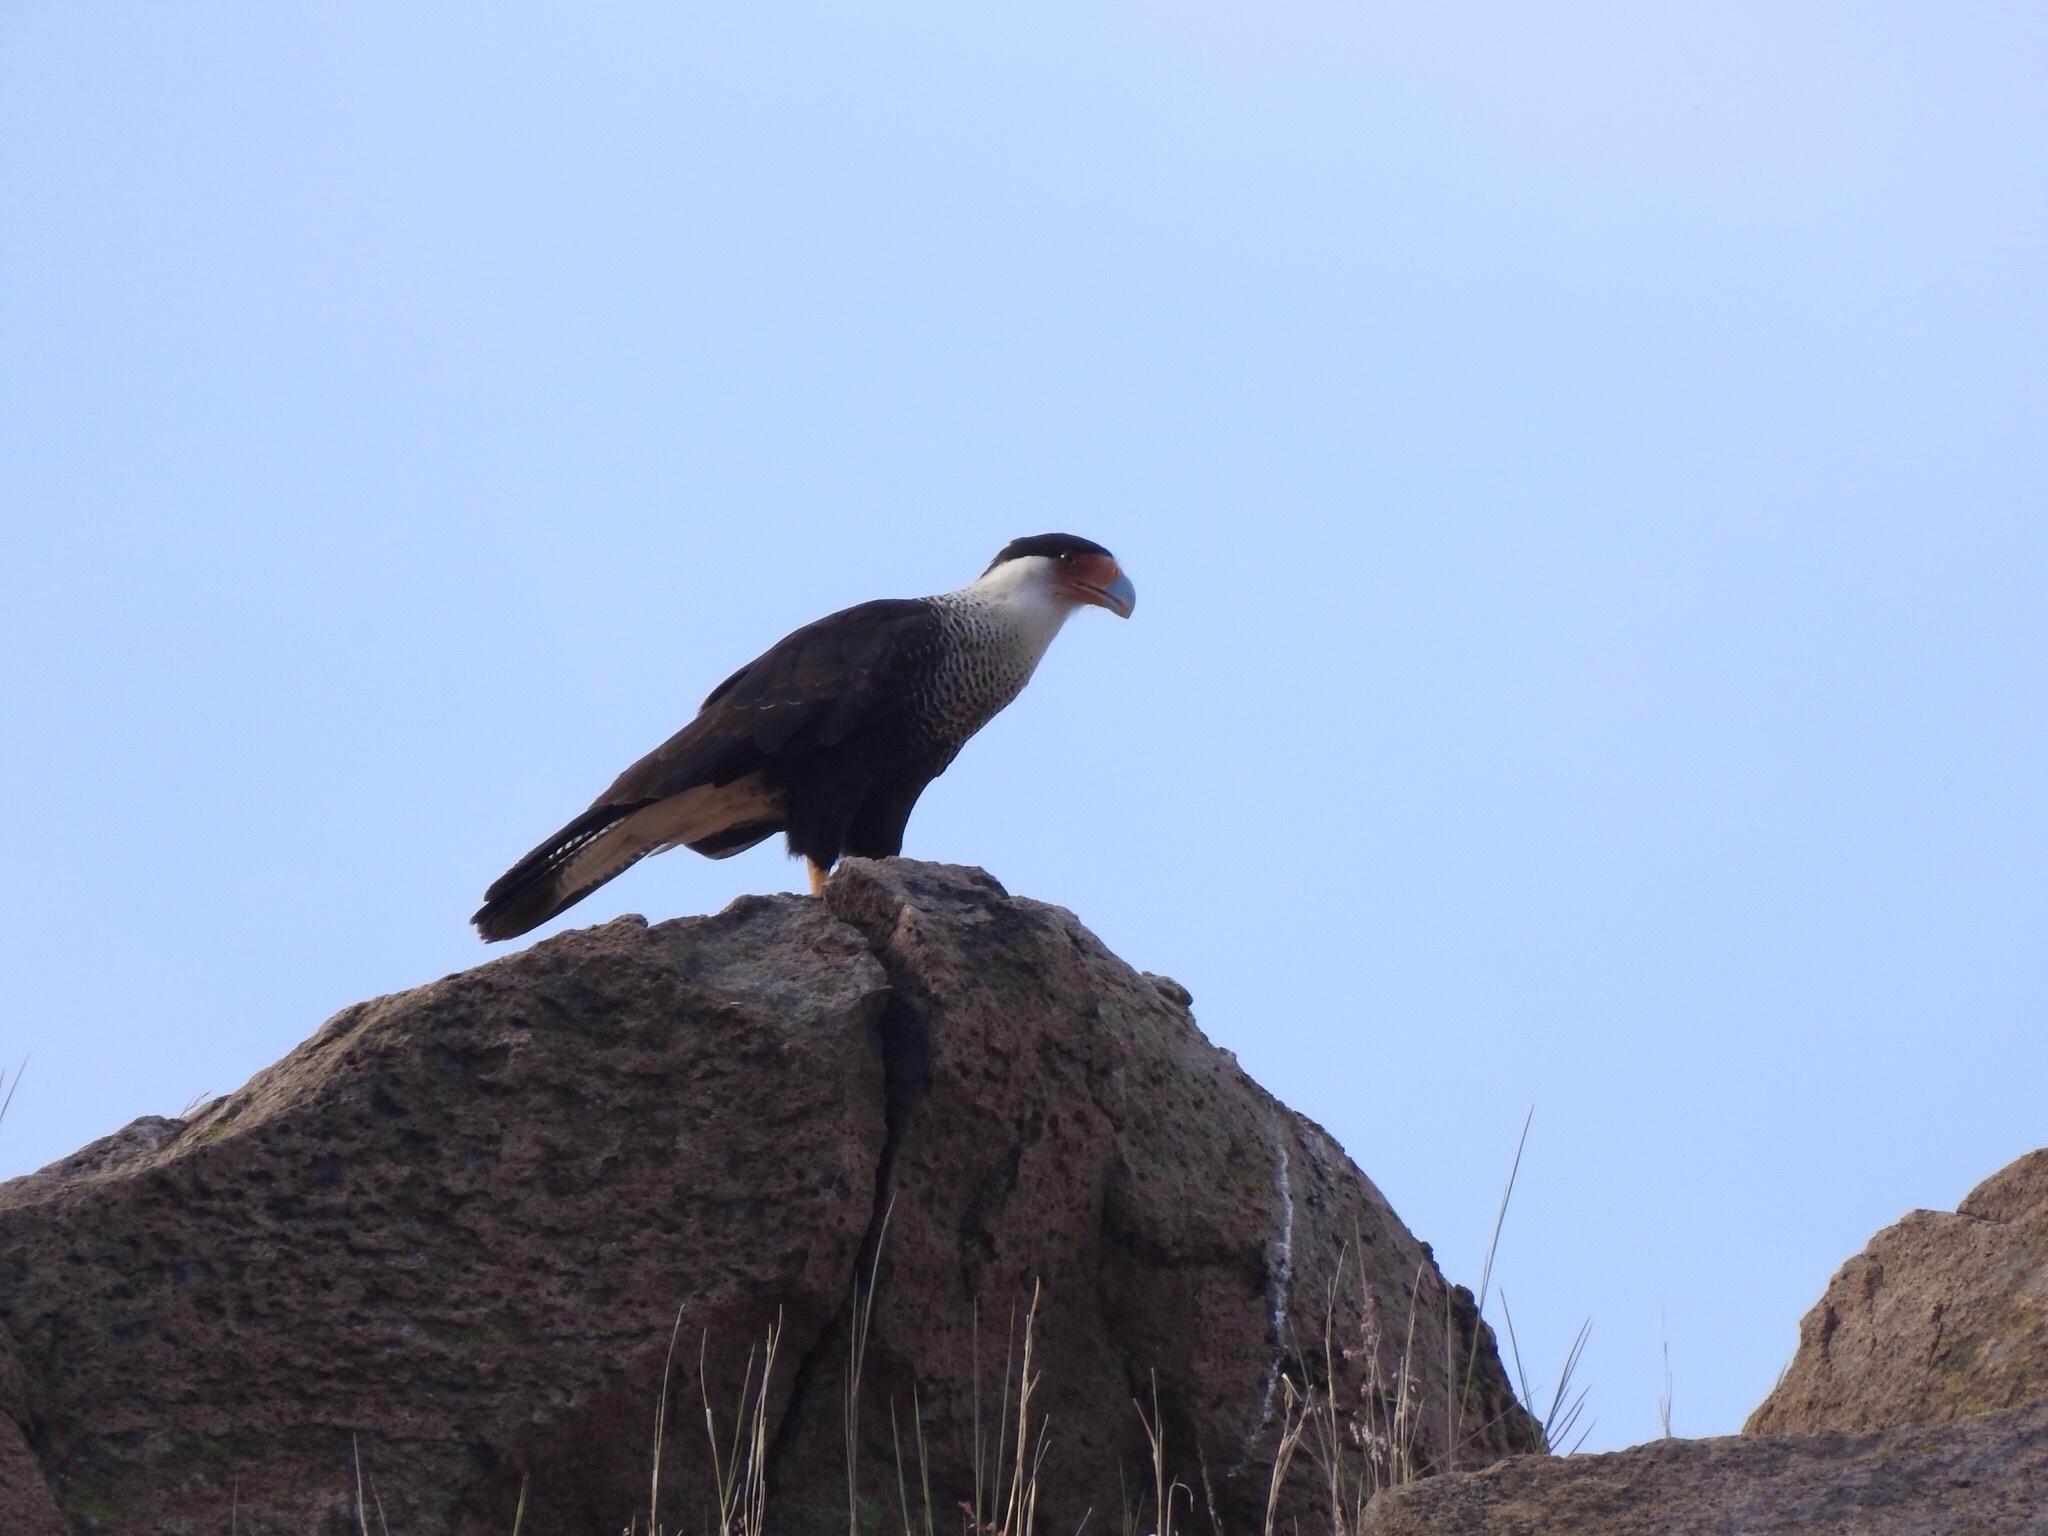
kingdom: Animalia
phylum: Chordata
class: Aves
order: Falconiformes
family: Falconidae
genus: Caracara
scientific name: Caracara plancus
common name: Southern caracara
